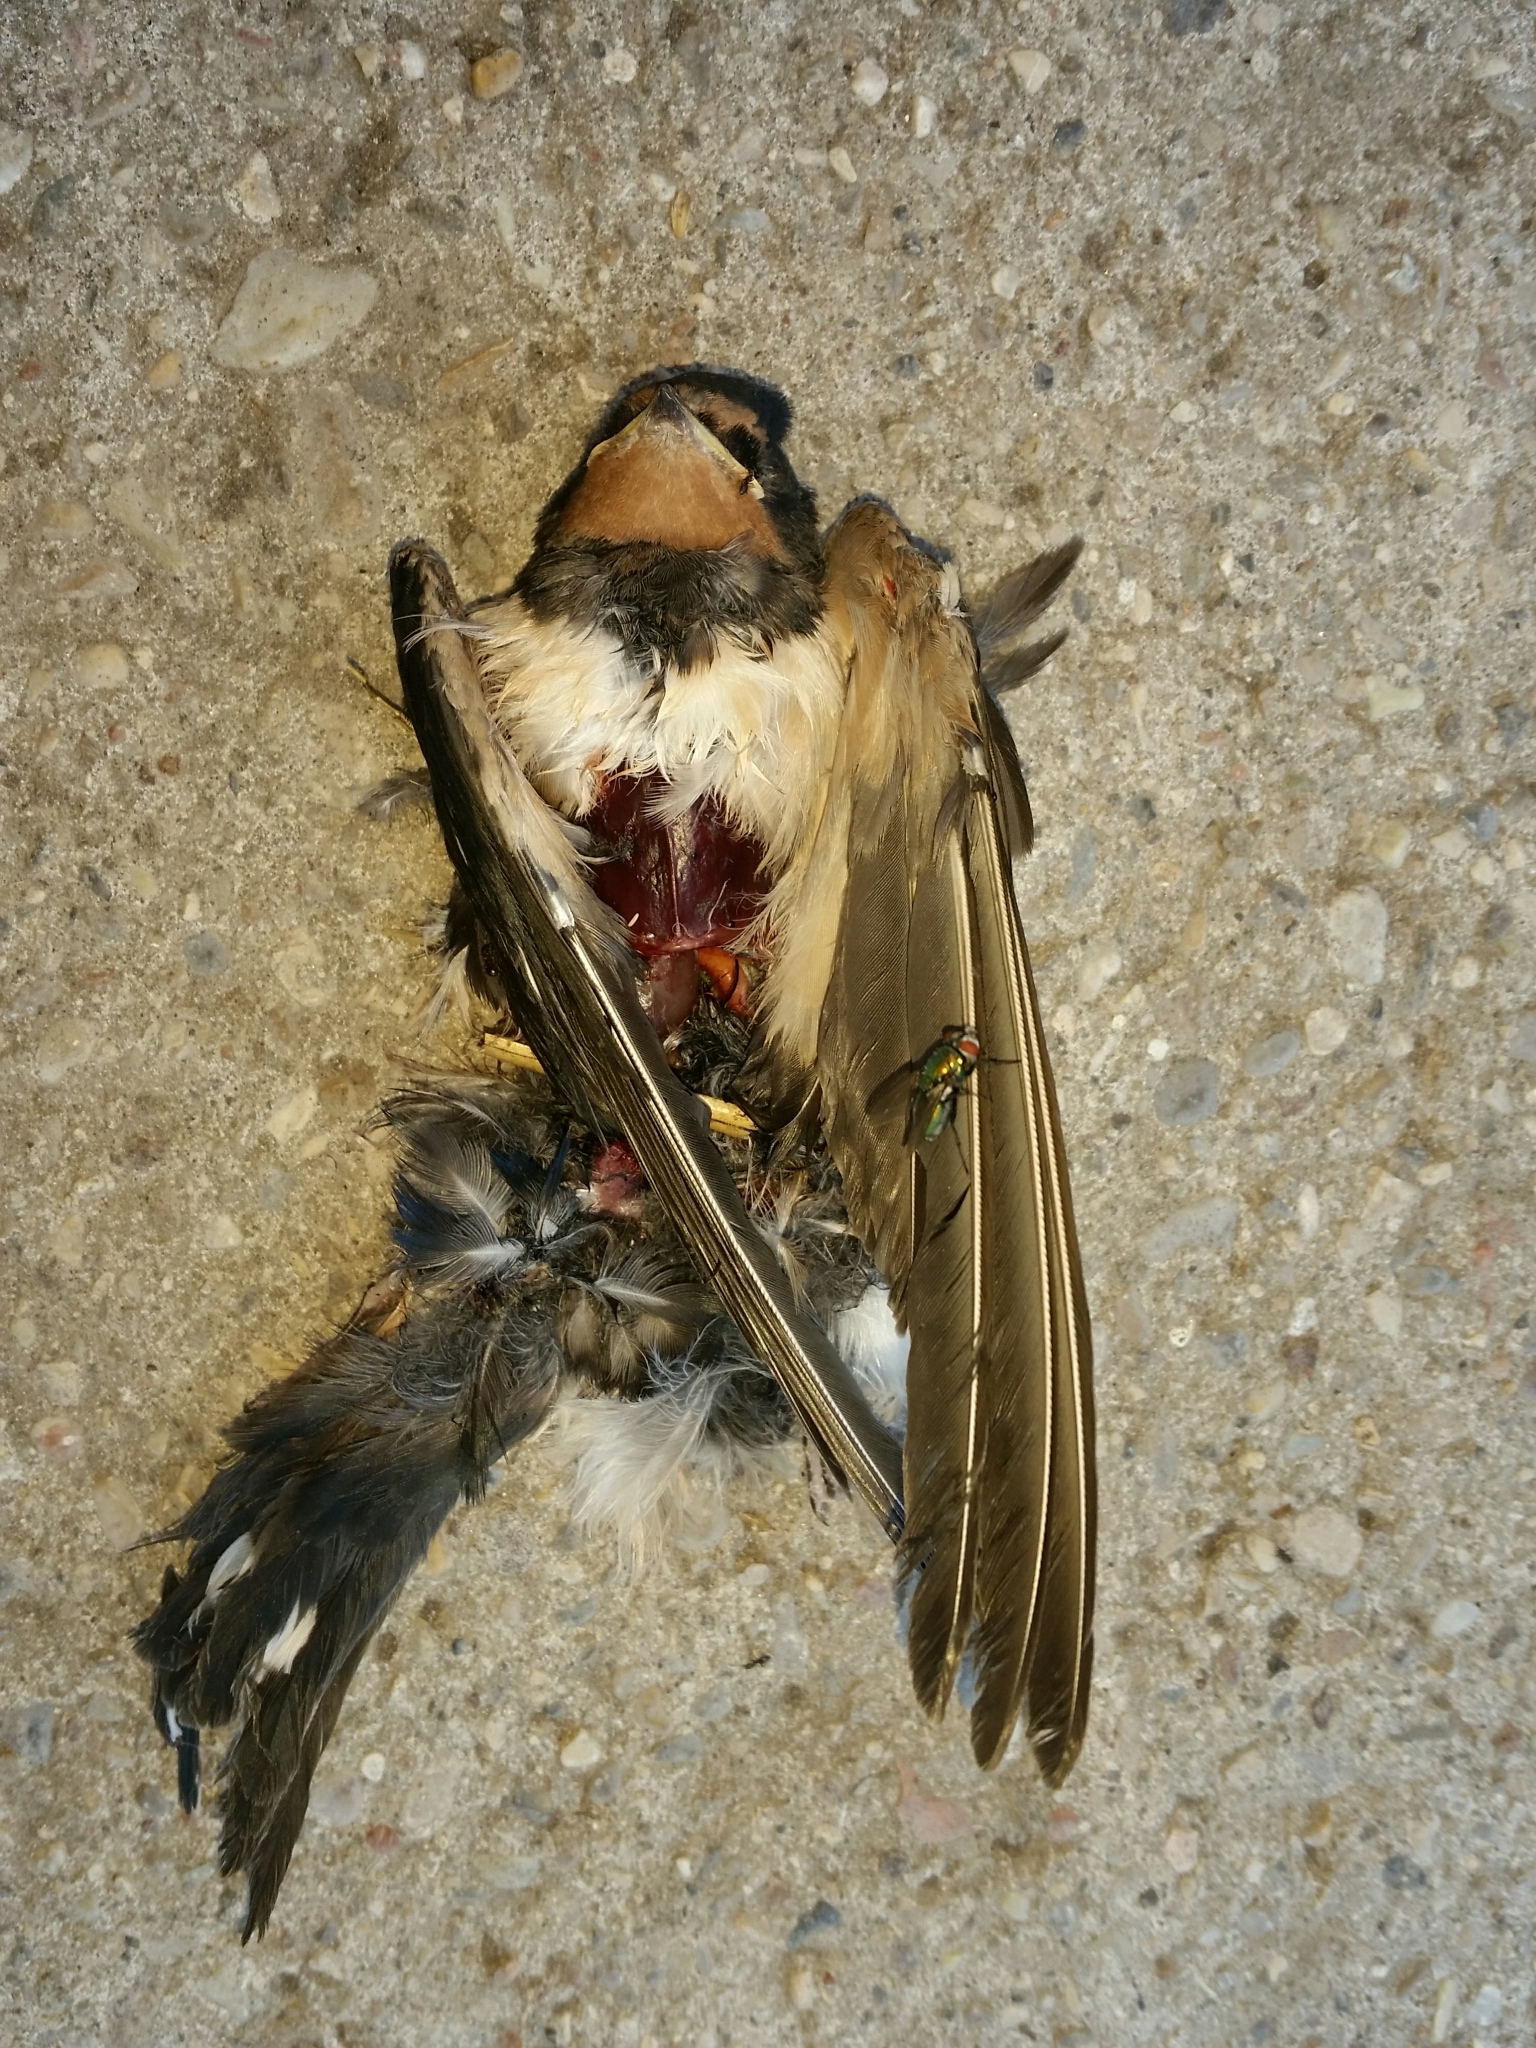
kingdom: Animalia
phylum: Chordata
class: Aves
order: Passeriformes
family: Hirundinidae
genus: Hirundo
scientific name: Hirundo rustica
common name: Barn swallow
